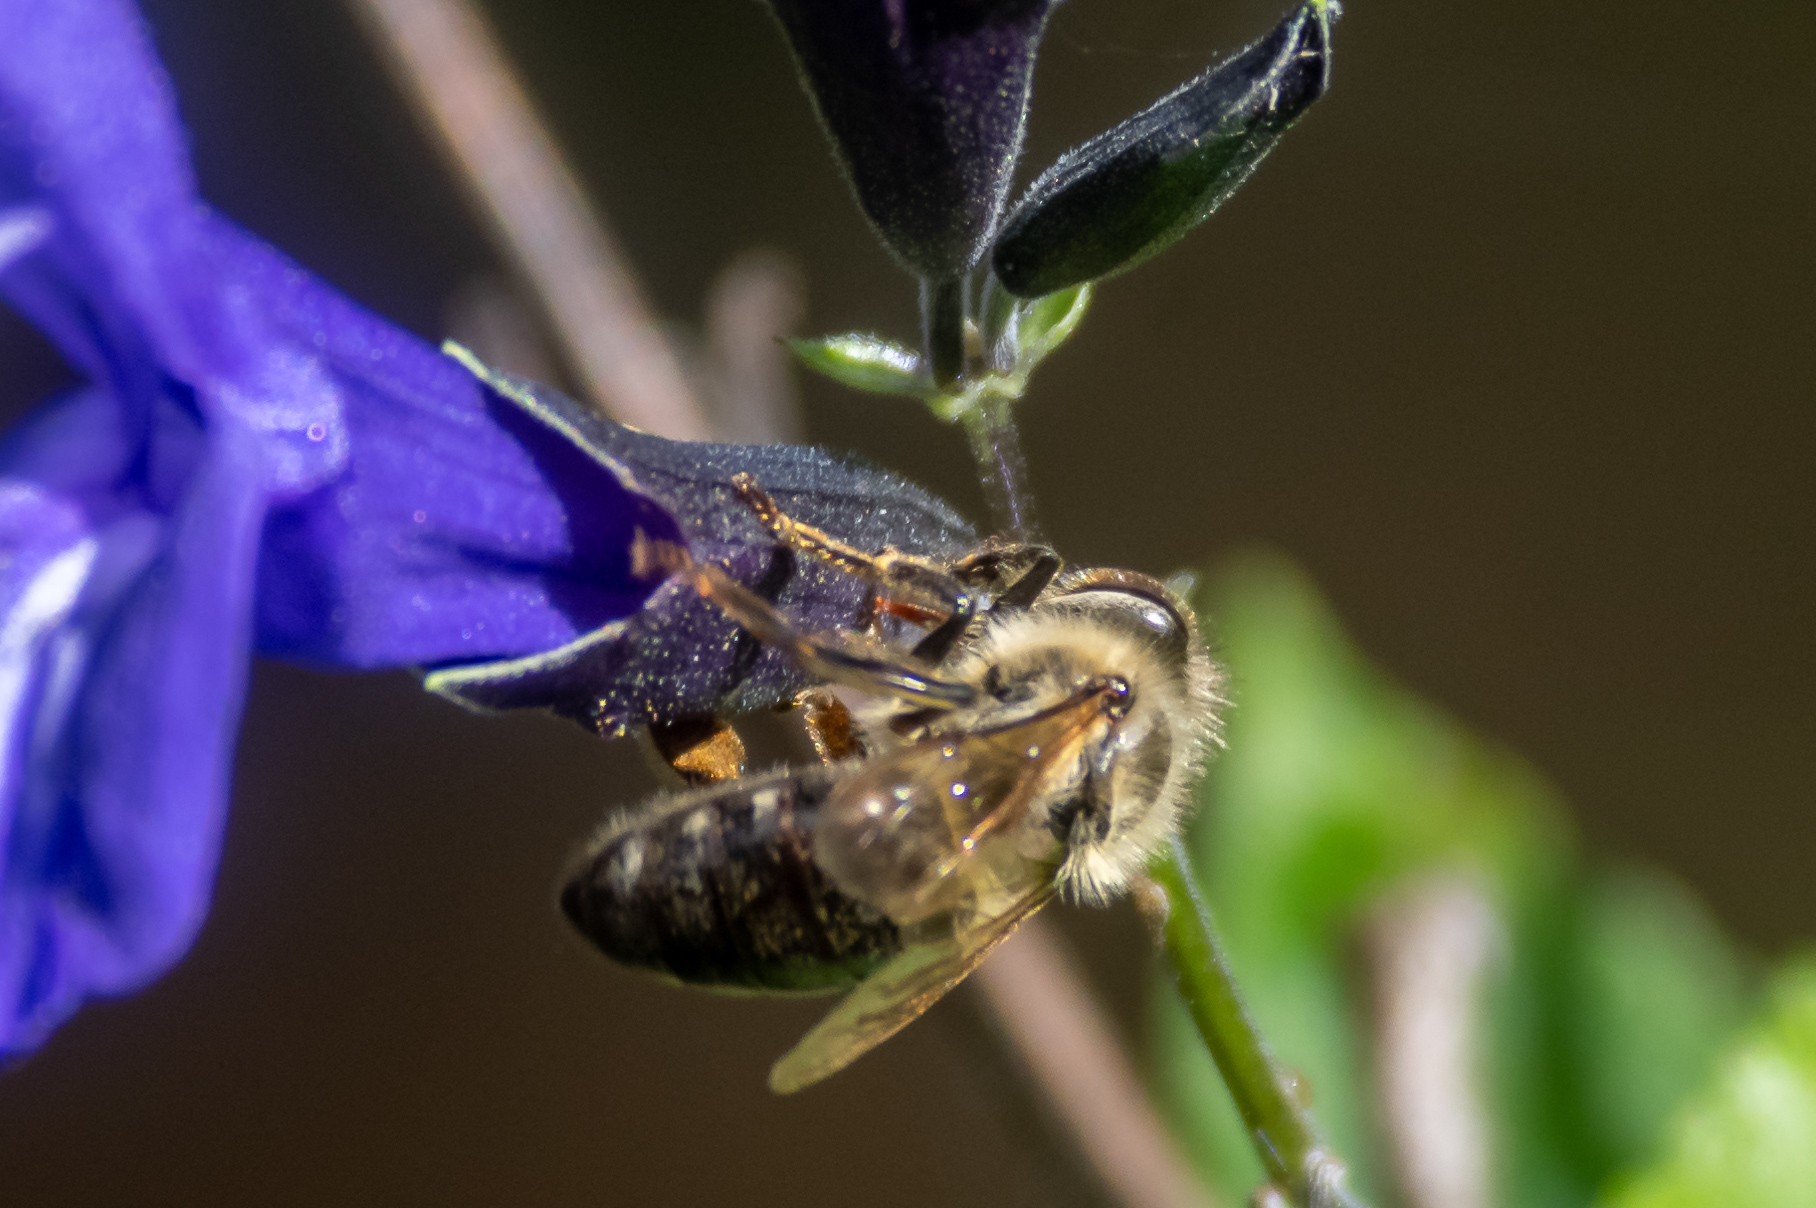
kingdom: Animalia
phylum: Arthropoda
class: Insecta
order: Hymenoptera
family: Apidae
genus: Apis
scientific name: Apis mellifera
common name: Honey bee
